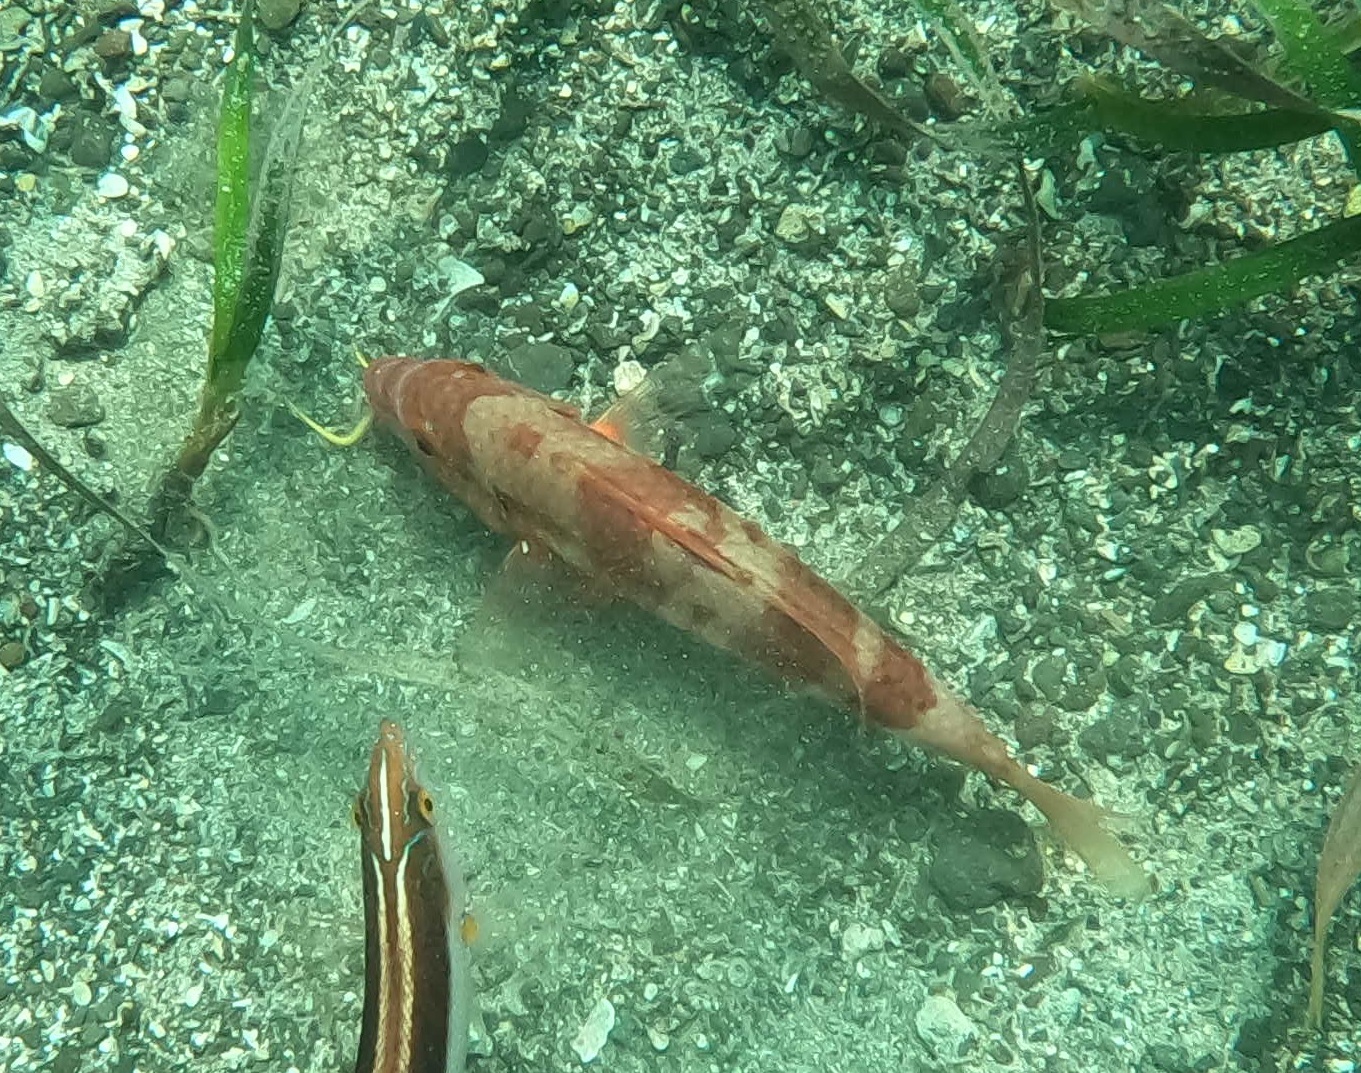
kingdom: Animalia
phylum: Chordata
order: Perciformes
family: Mullidae
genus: Upeneichthys
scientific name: Upeneichthys lineatus
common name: Red mullet
